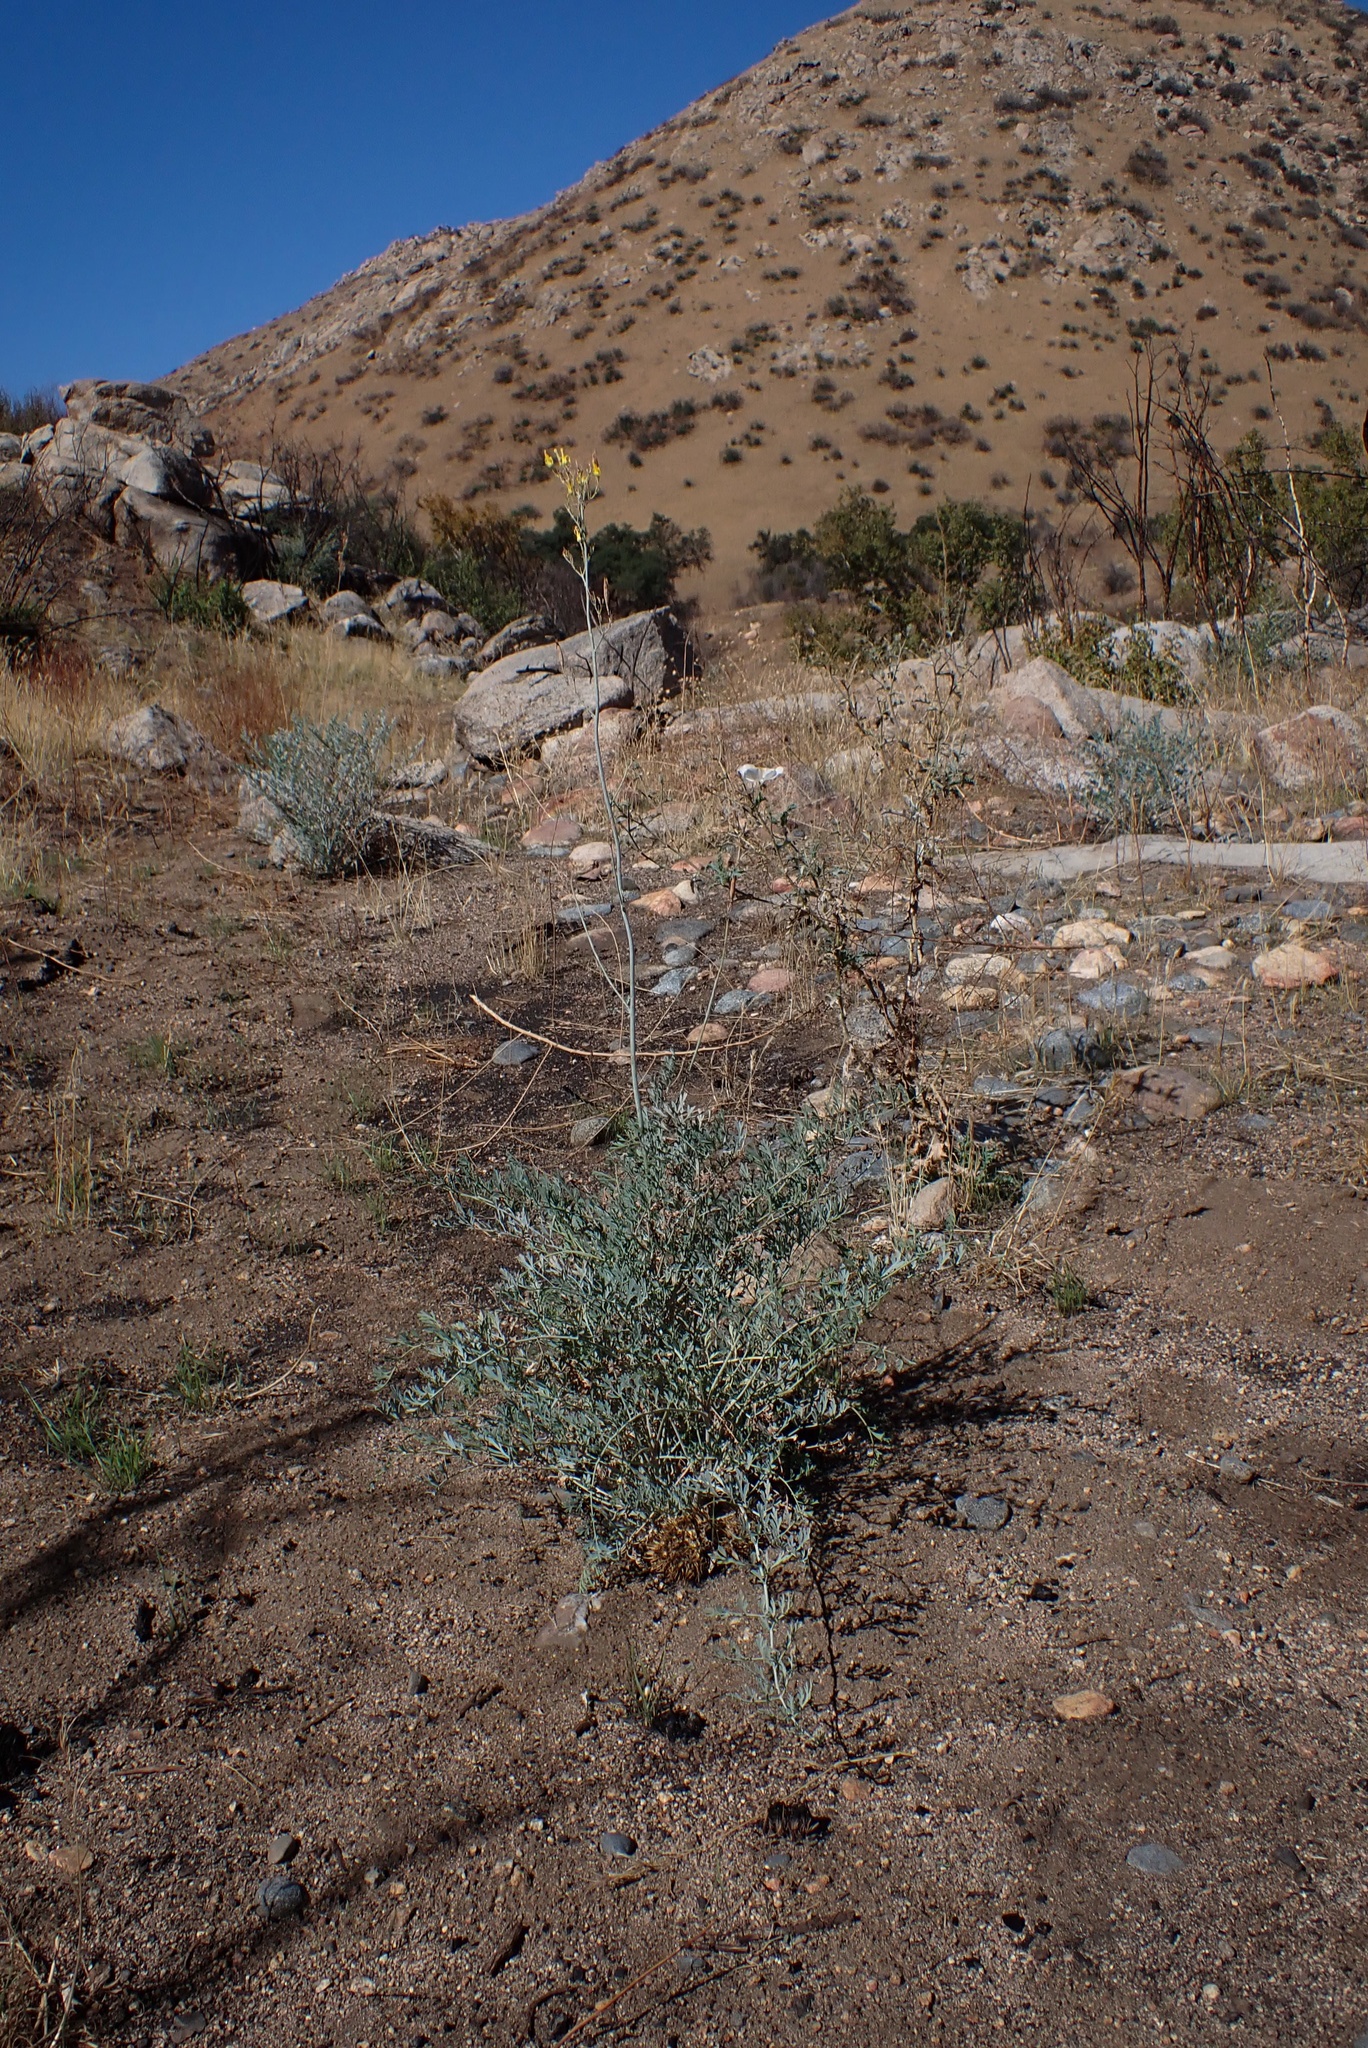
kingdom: Plantae
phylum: Tracheophyta
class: Magnoliopsida
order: Ranunculales
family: Papaveraceae
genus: Ehrendorferia
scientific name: Ehrendorferia chrysantha
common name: Golden eardrops
